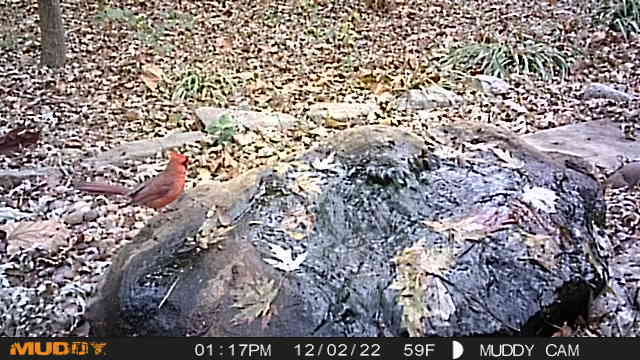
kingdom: Animalia
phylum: Chordata
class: Aves
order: Passeriformes
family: Cardinalidae
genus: Cardinalis
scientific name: Cardinalis cardinalis
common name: Northern cardinal
